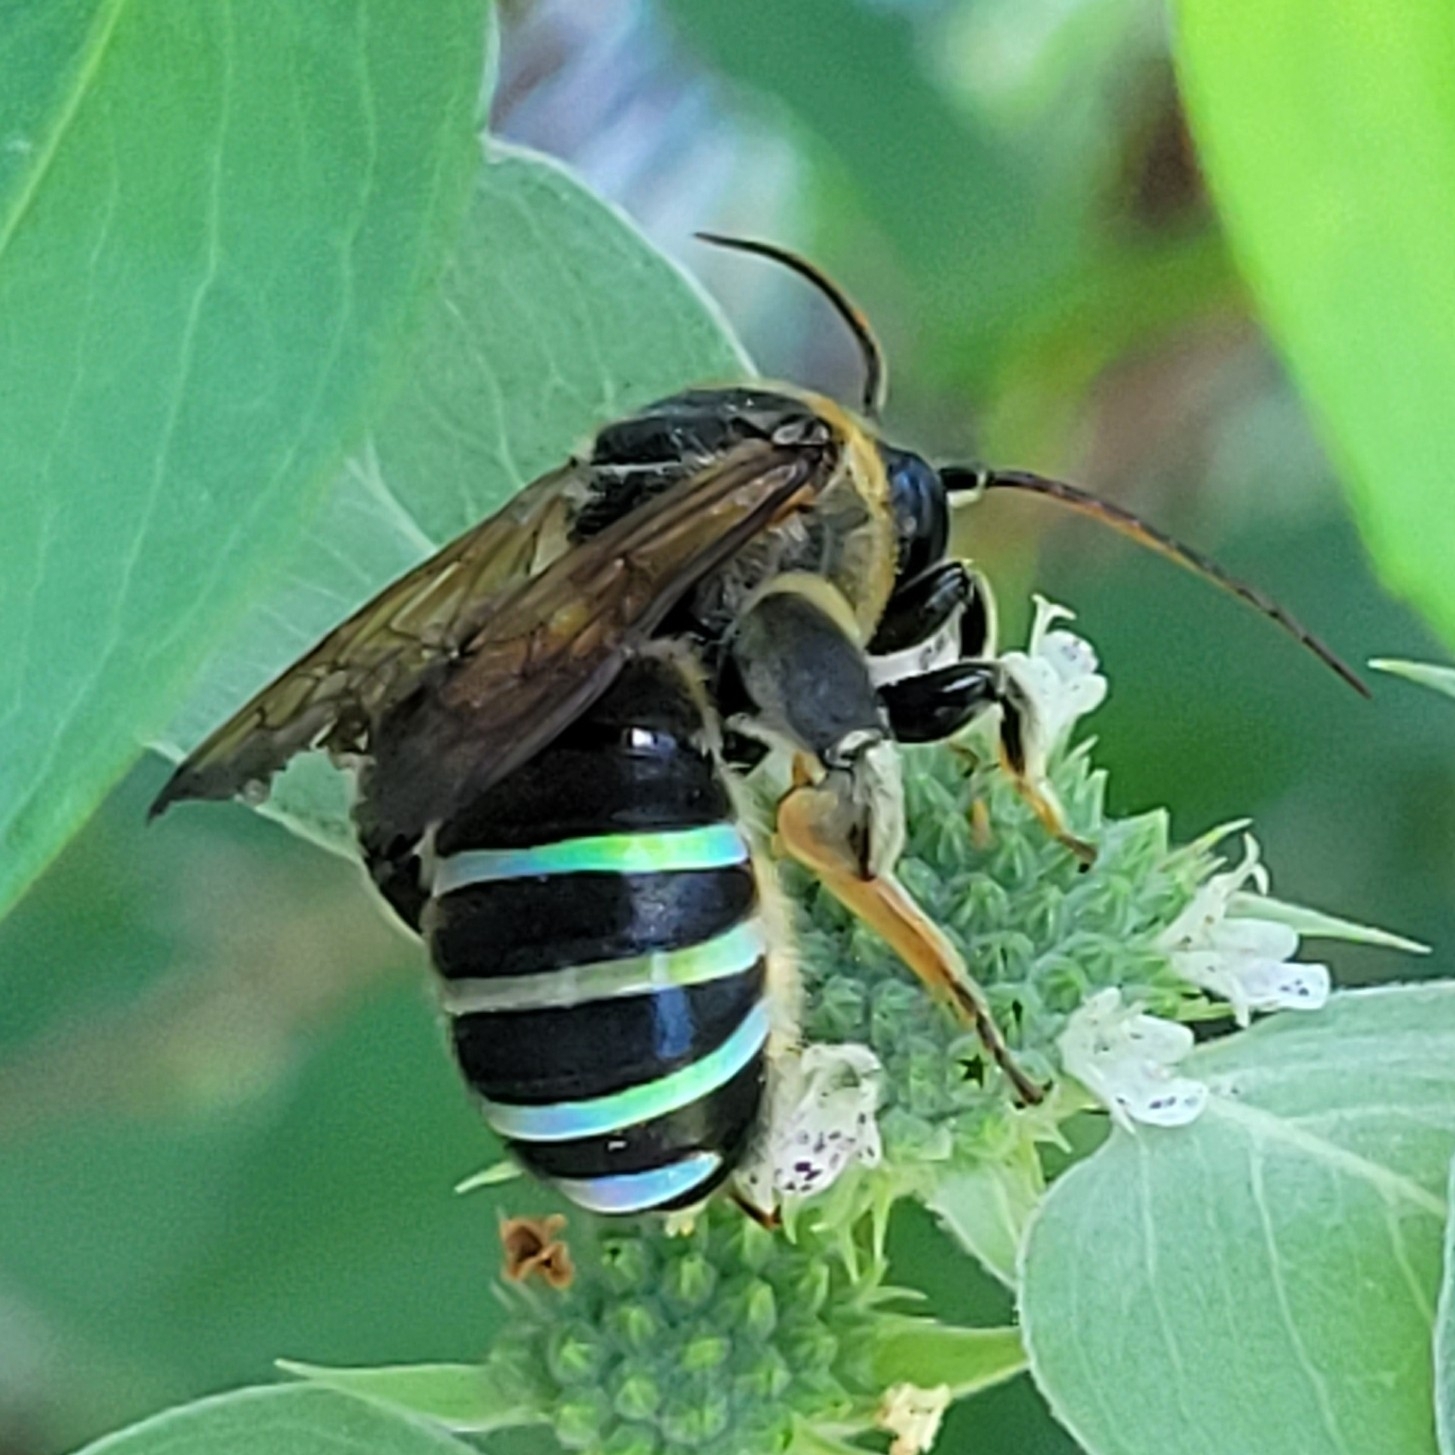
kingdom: Animalia
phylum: Arthropoda
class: Insecta
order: Hymenoptera
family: Halictidae
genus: Nomia
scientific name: Nomia nortoni
